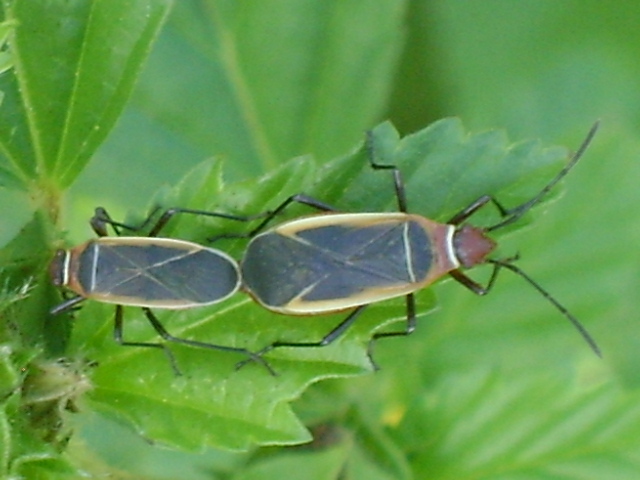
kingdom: Animalia
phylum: Arthropoda
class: Insecta
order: Hemiptera
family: Pyrrhocoridae
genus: Dysdercus
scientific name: Dysdercus mimulus
